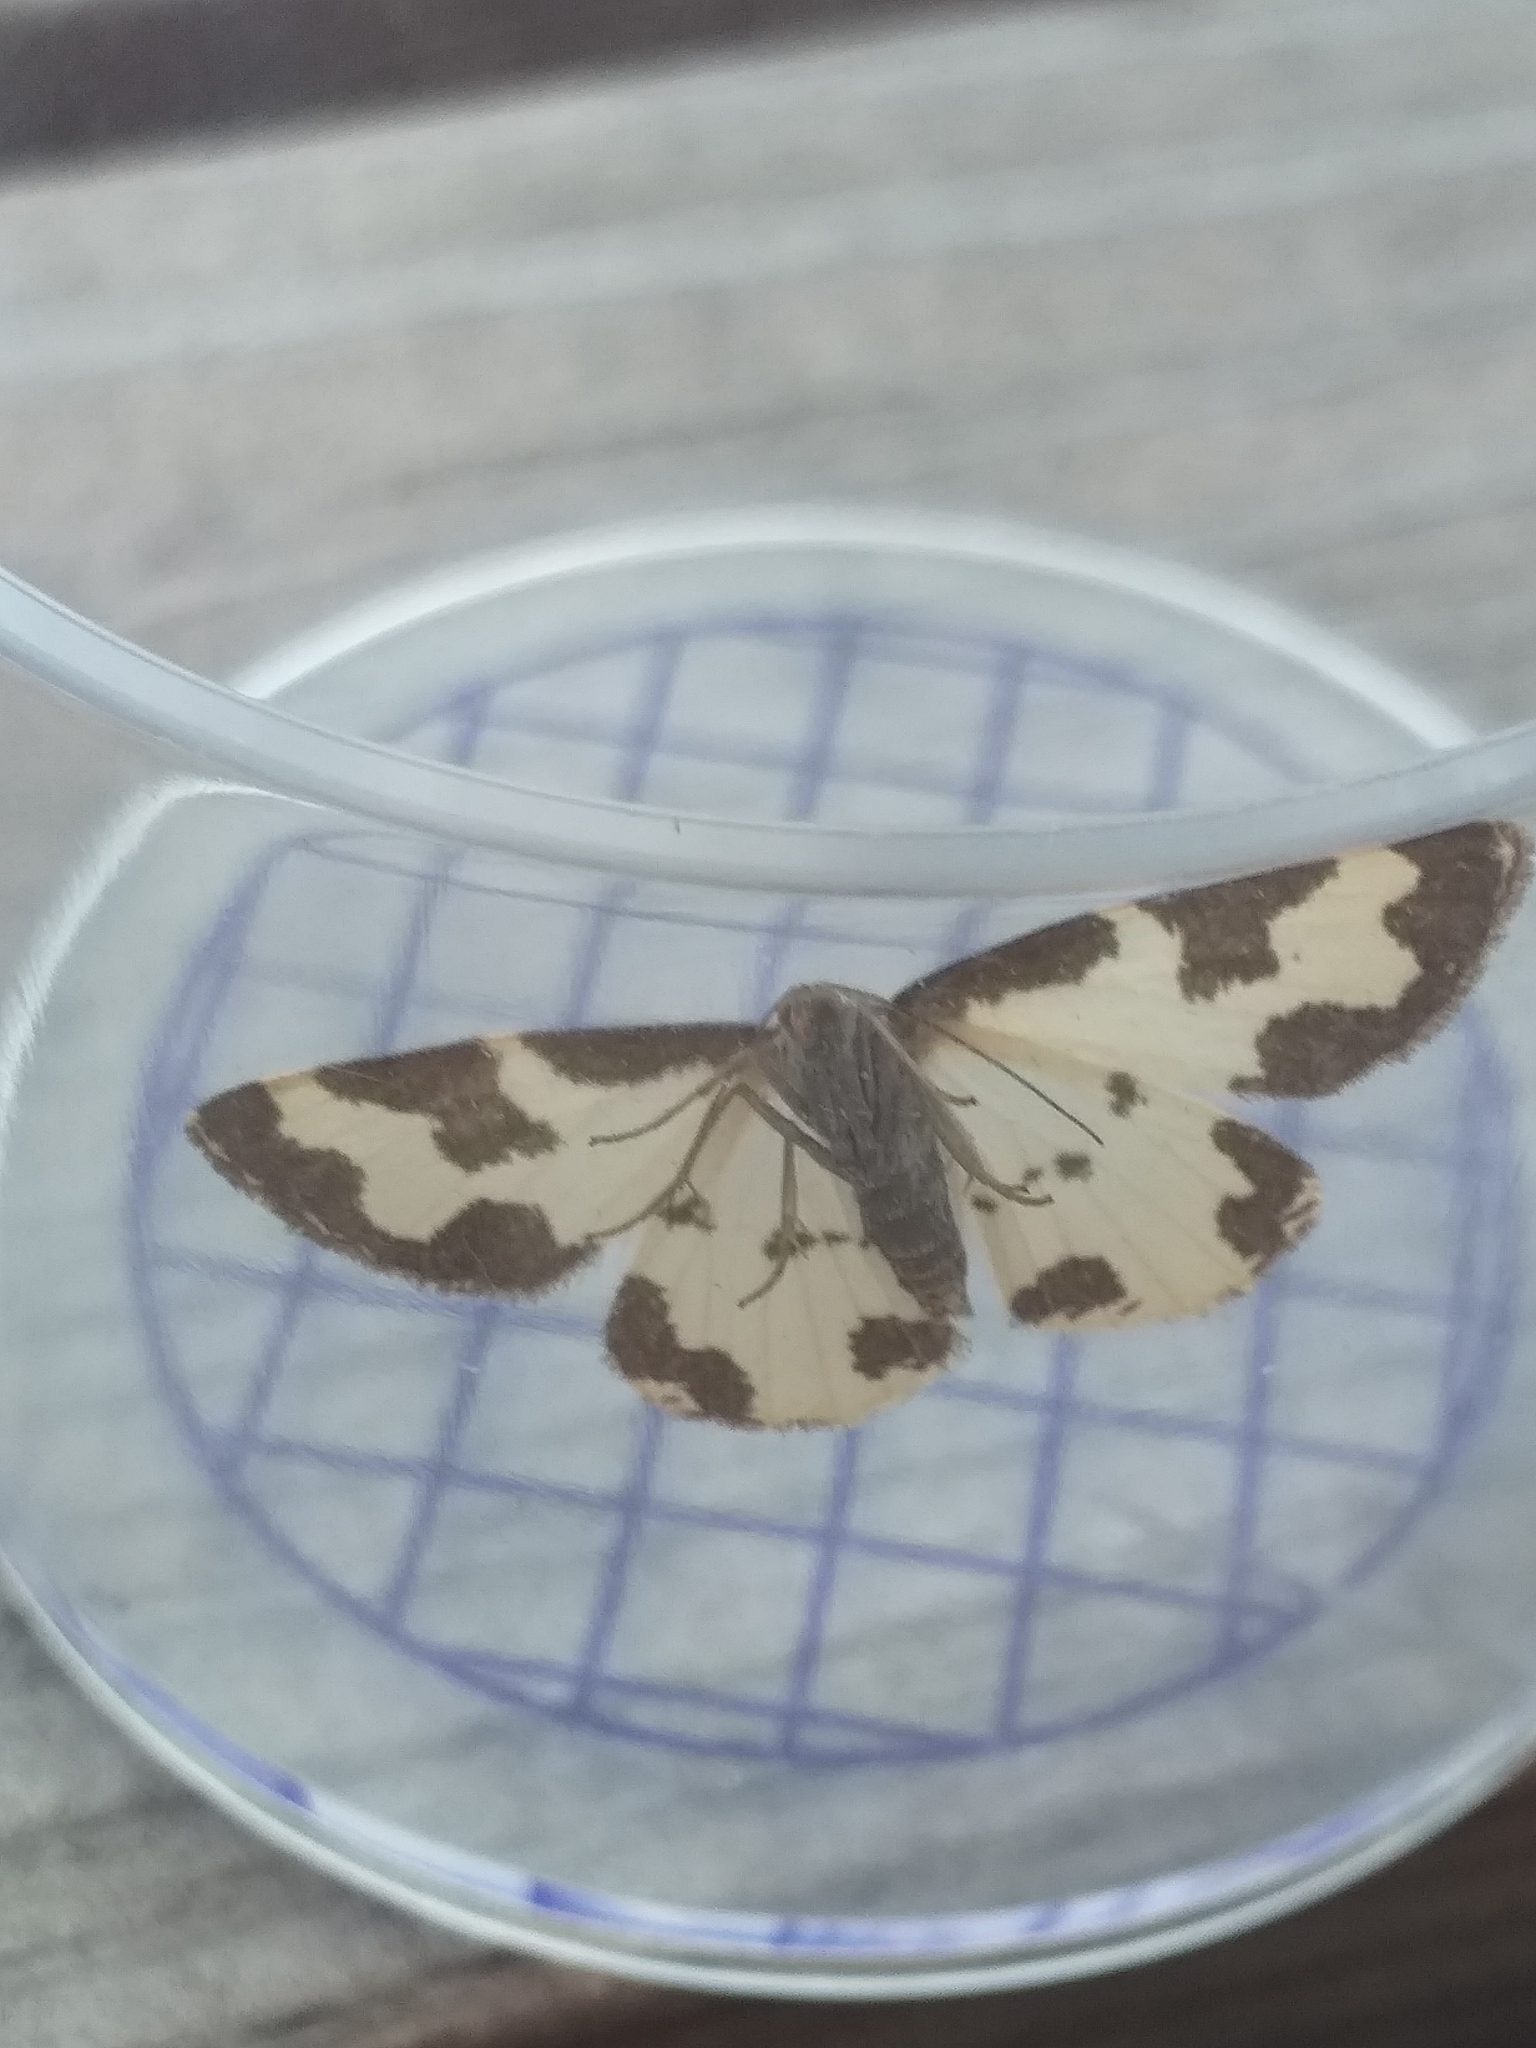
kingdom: Animalia
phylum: Arthropoda
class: Insecta
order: Lepidoptera
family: Geometridae
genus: Lomaspilis
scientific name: Lomaspilis marginata
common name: Clouded border
